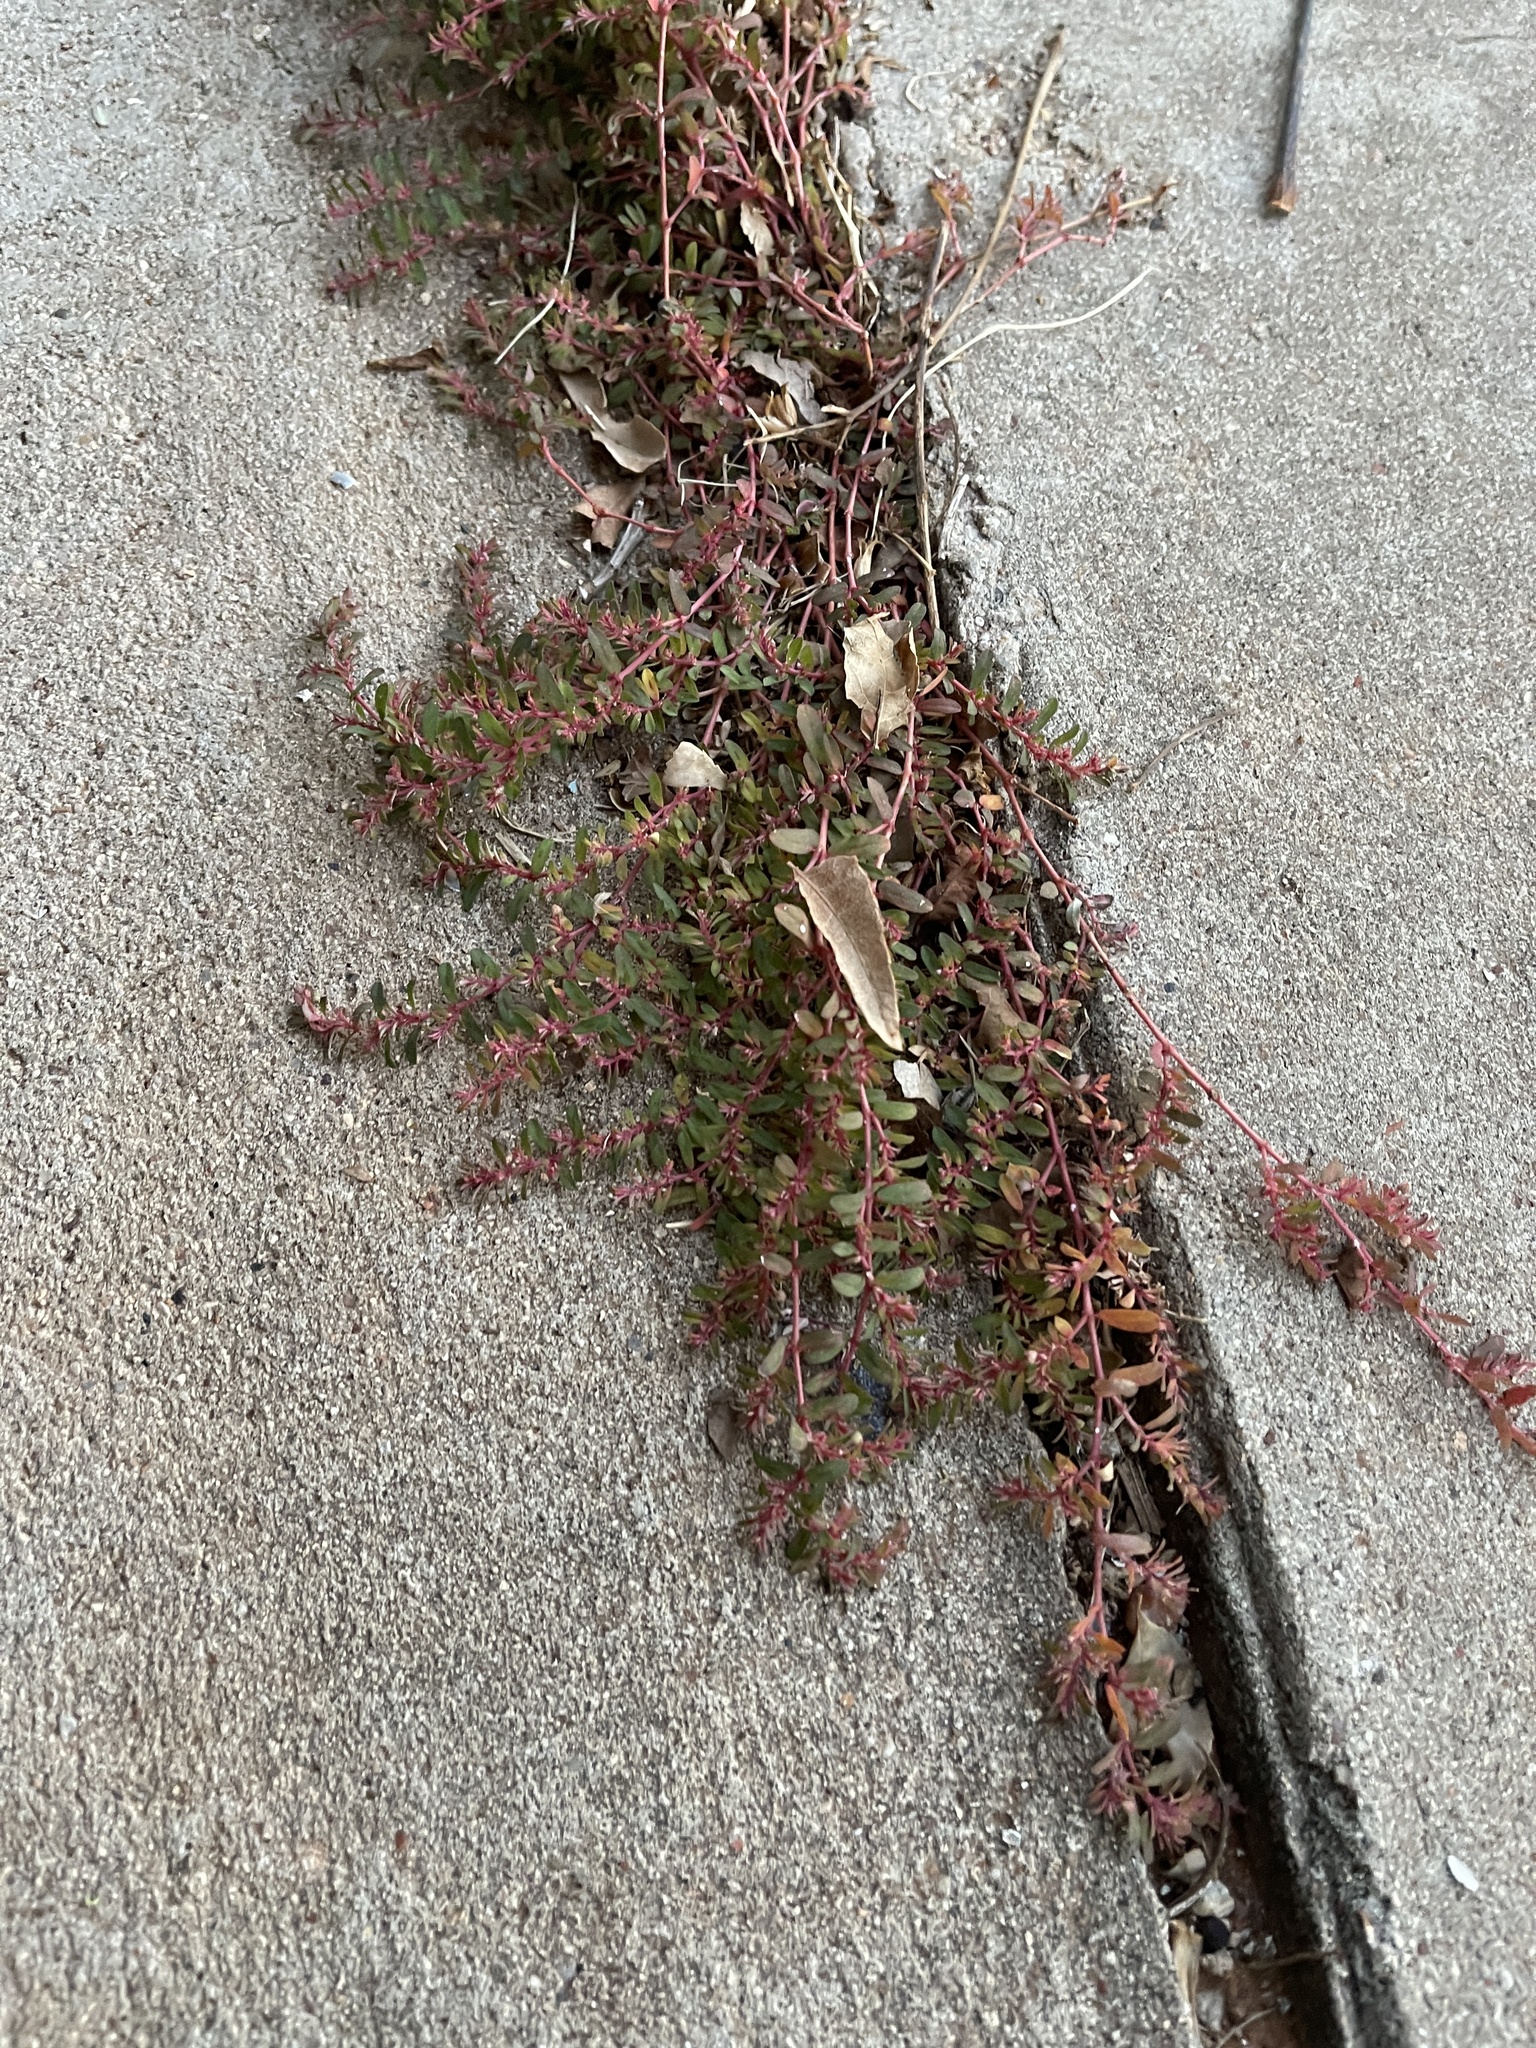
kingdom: Plantae
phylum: Tracheophyta
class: Magnoliopsida
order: Malpighiales
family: Euphorbiaceae
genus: Euphorbia
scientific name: Euphorbia maculata
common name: Spotted spurge
